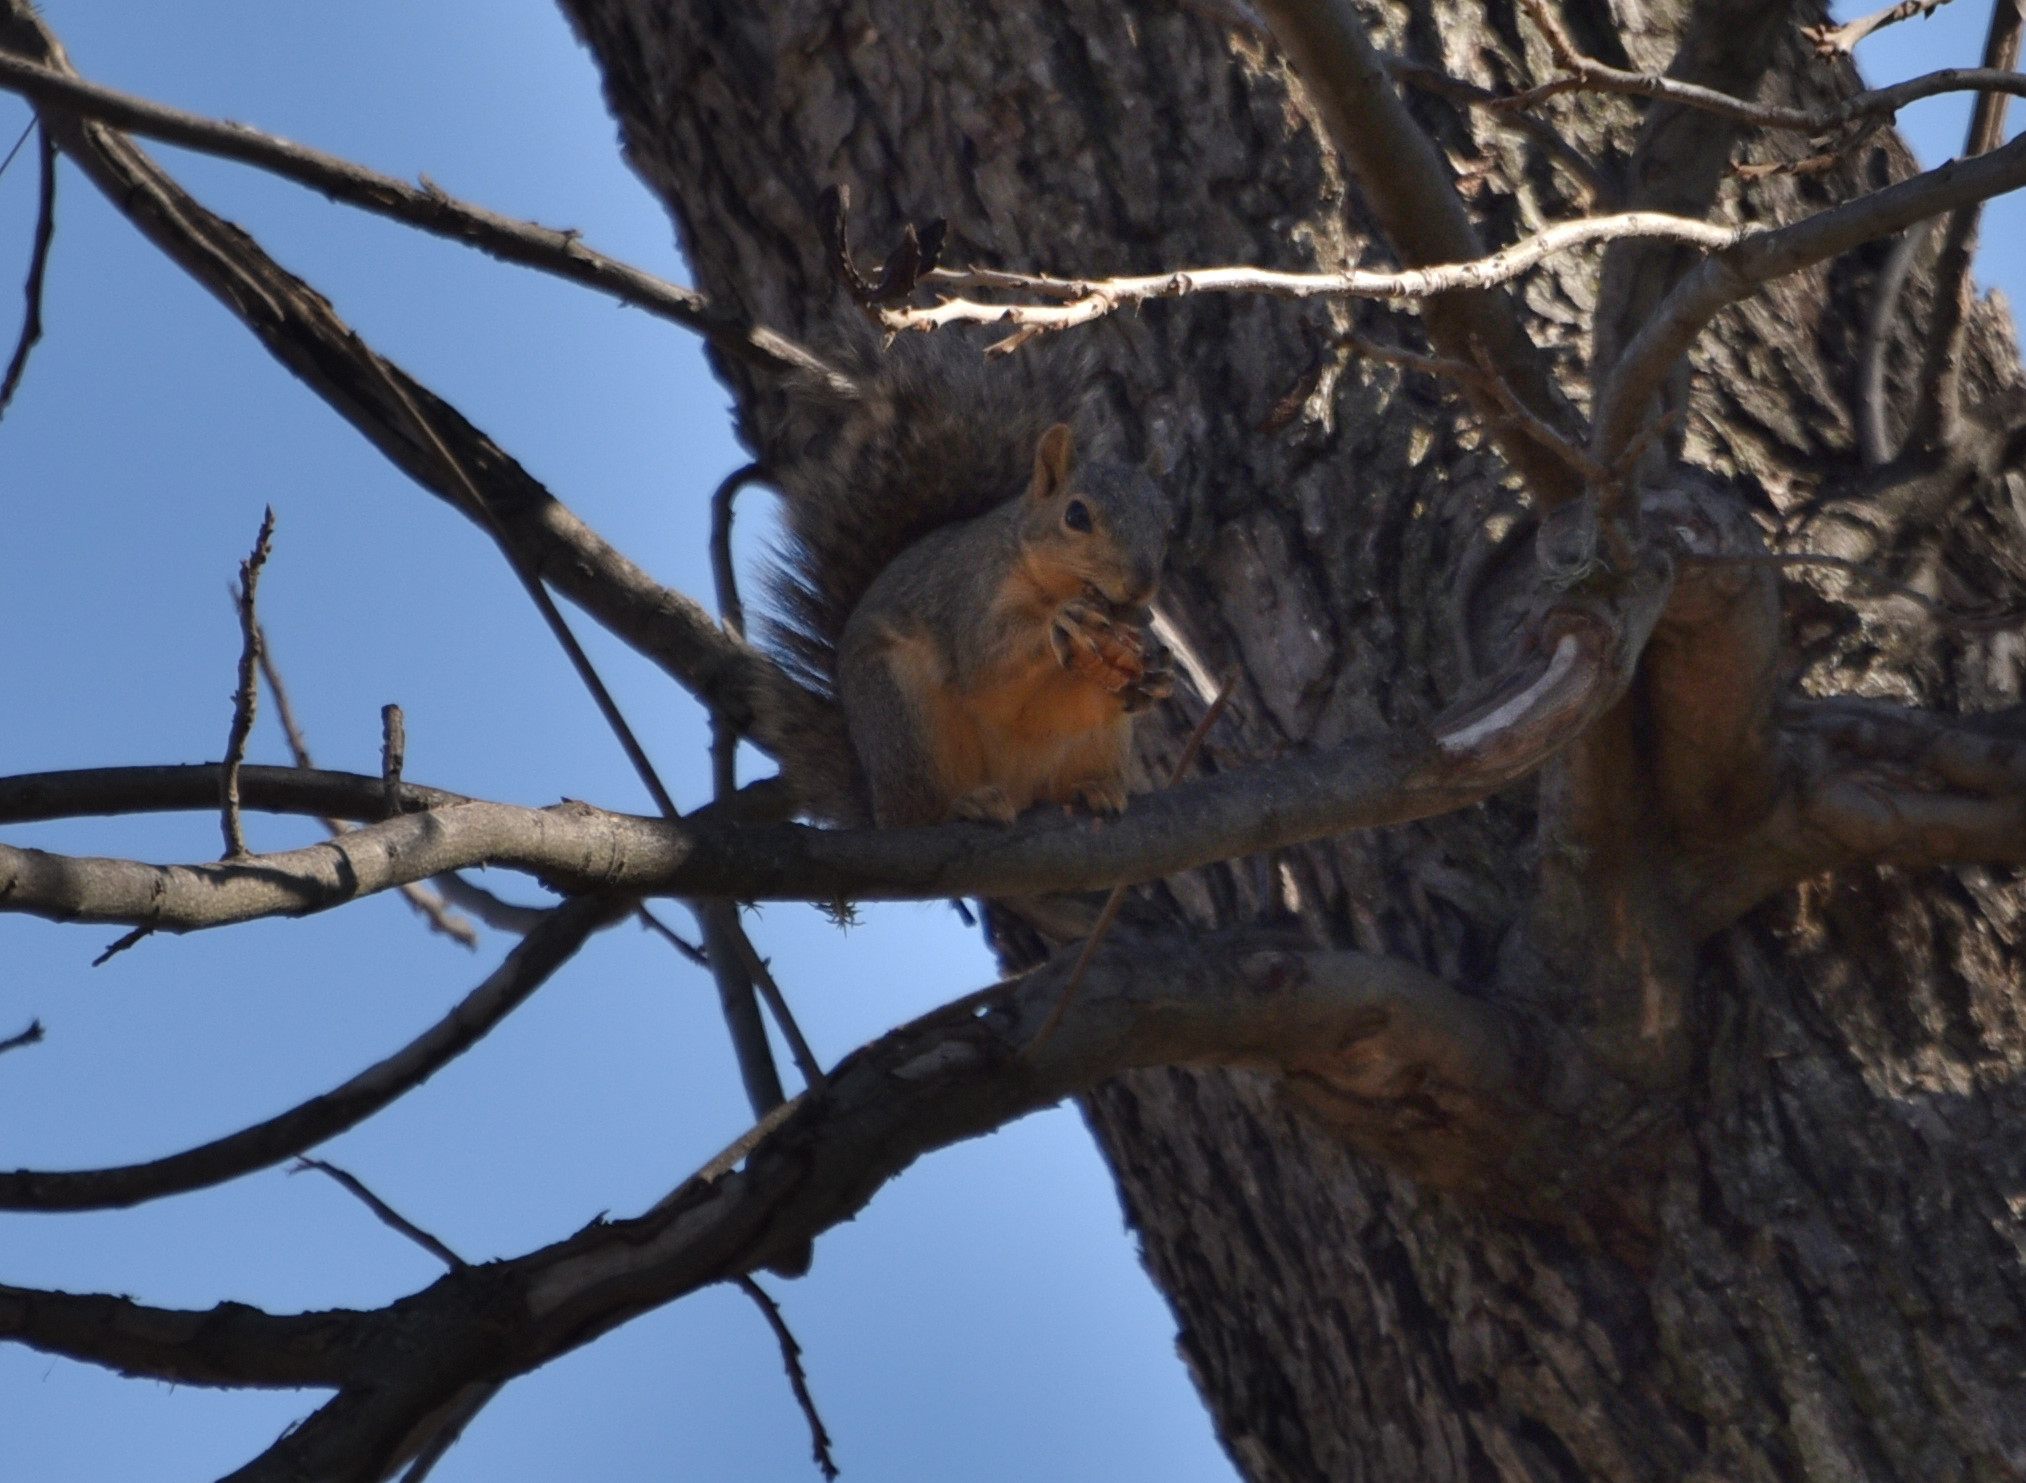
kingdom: Animalia
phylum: Chordata
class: Mammalia
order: Rodentia
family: Sciuridae
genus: Sciurus
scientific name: Sciurus niger
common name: Fox squirrel
